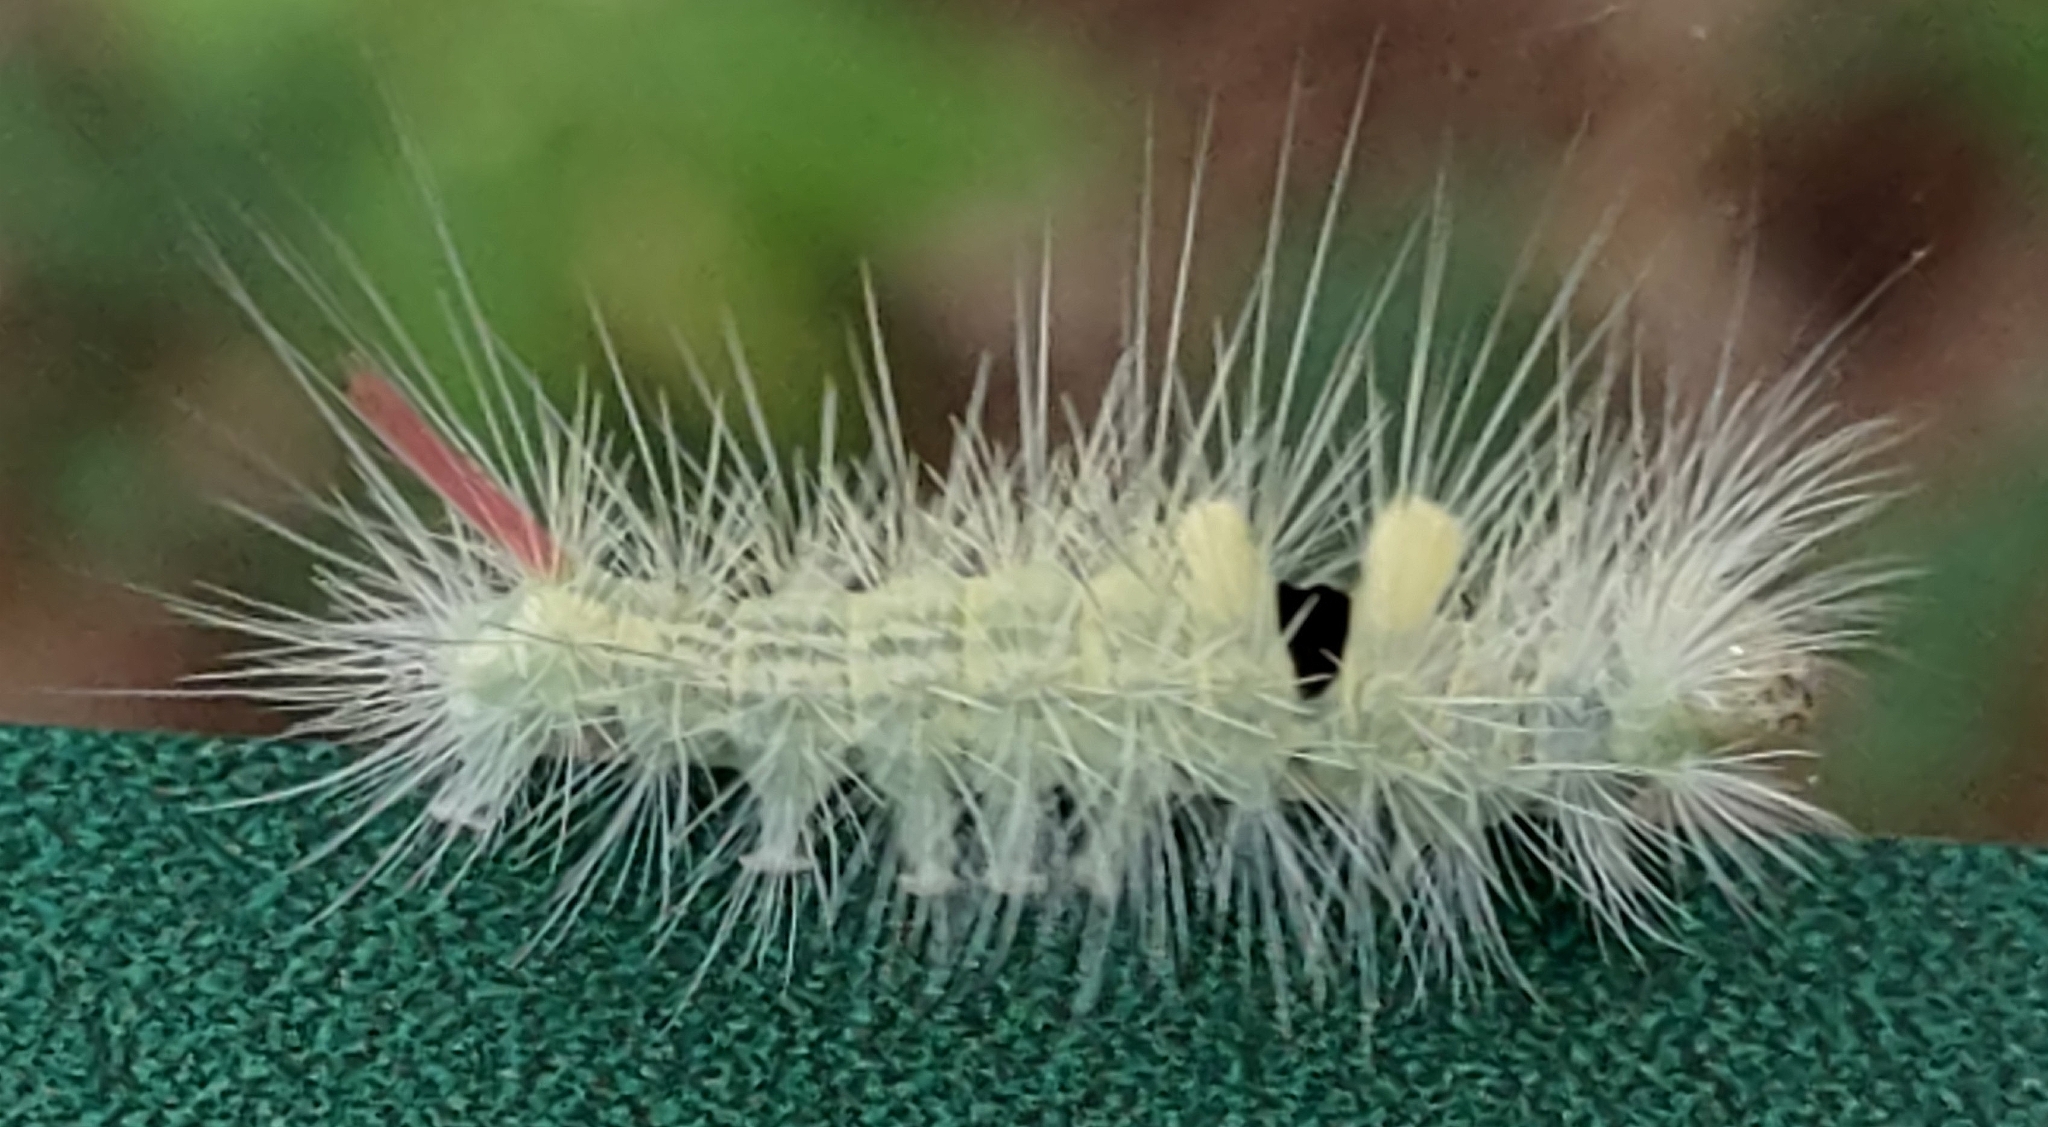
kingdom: Animalia
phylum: Arthropoda
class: Insecta
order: Lepidoptera
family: Erebidae
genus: Calliteara
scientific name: Calliteara pudibunda
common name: Pale tussock
